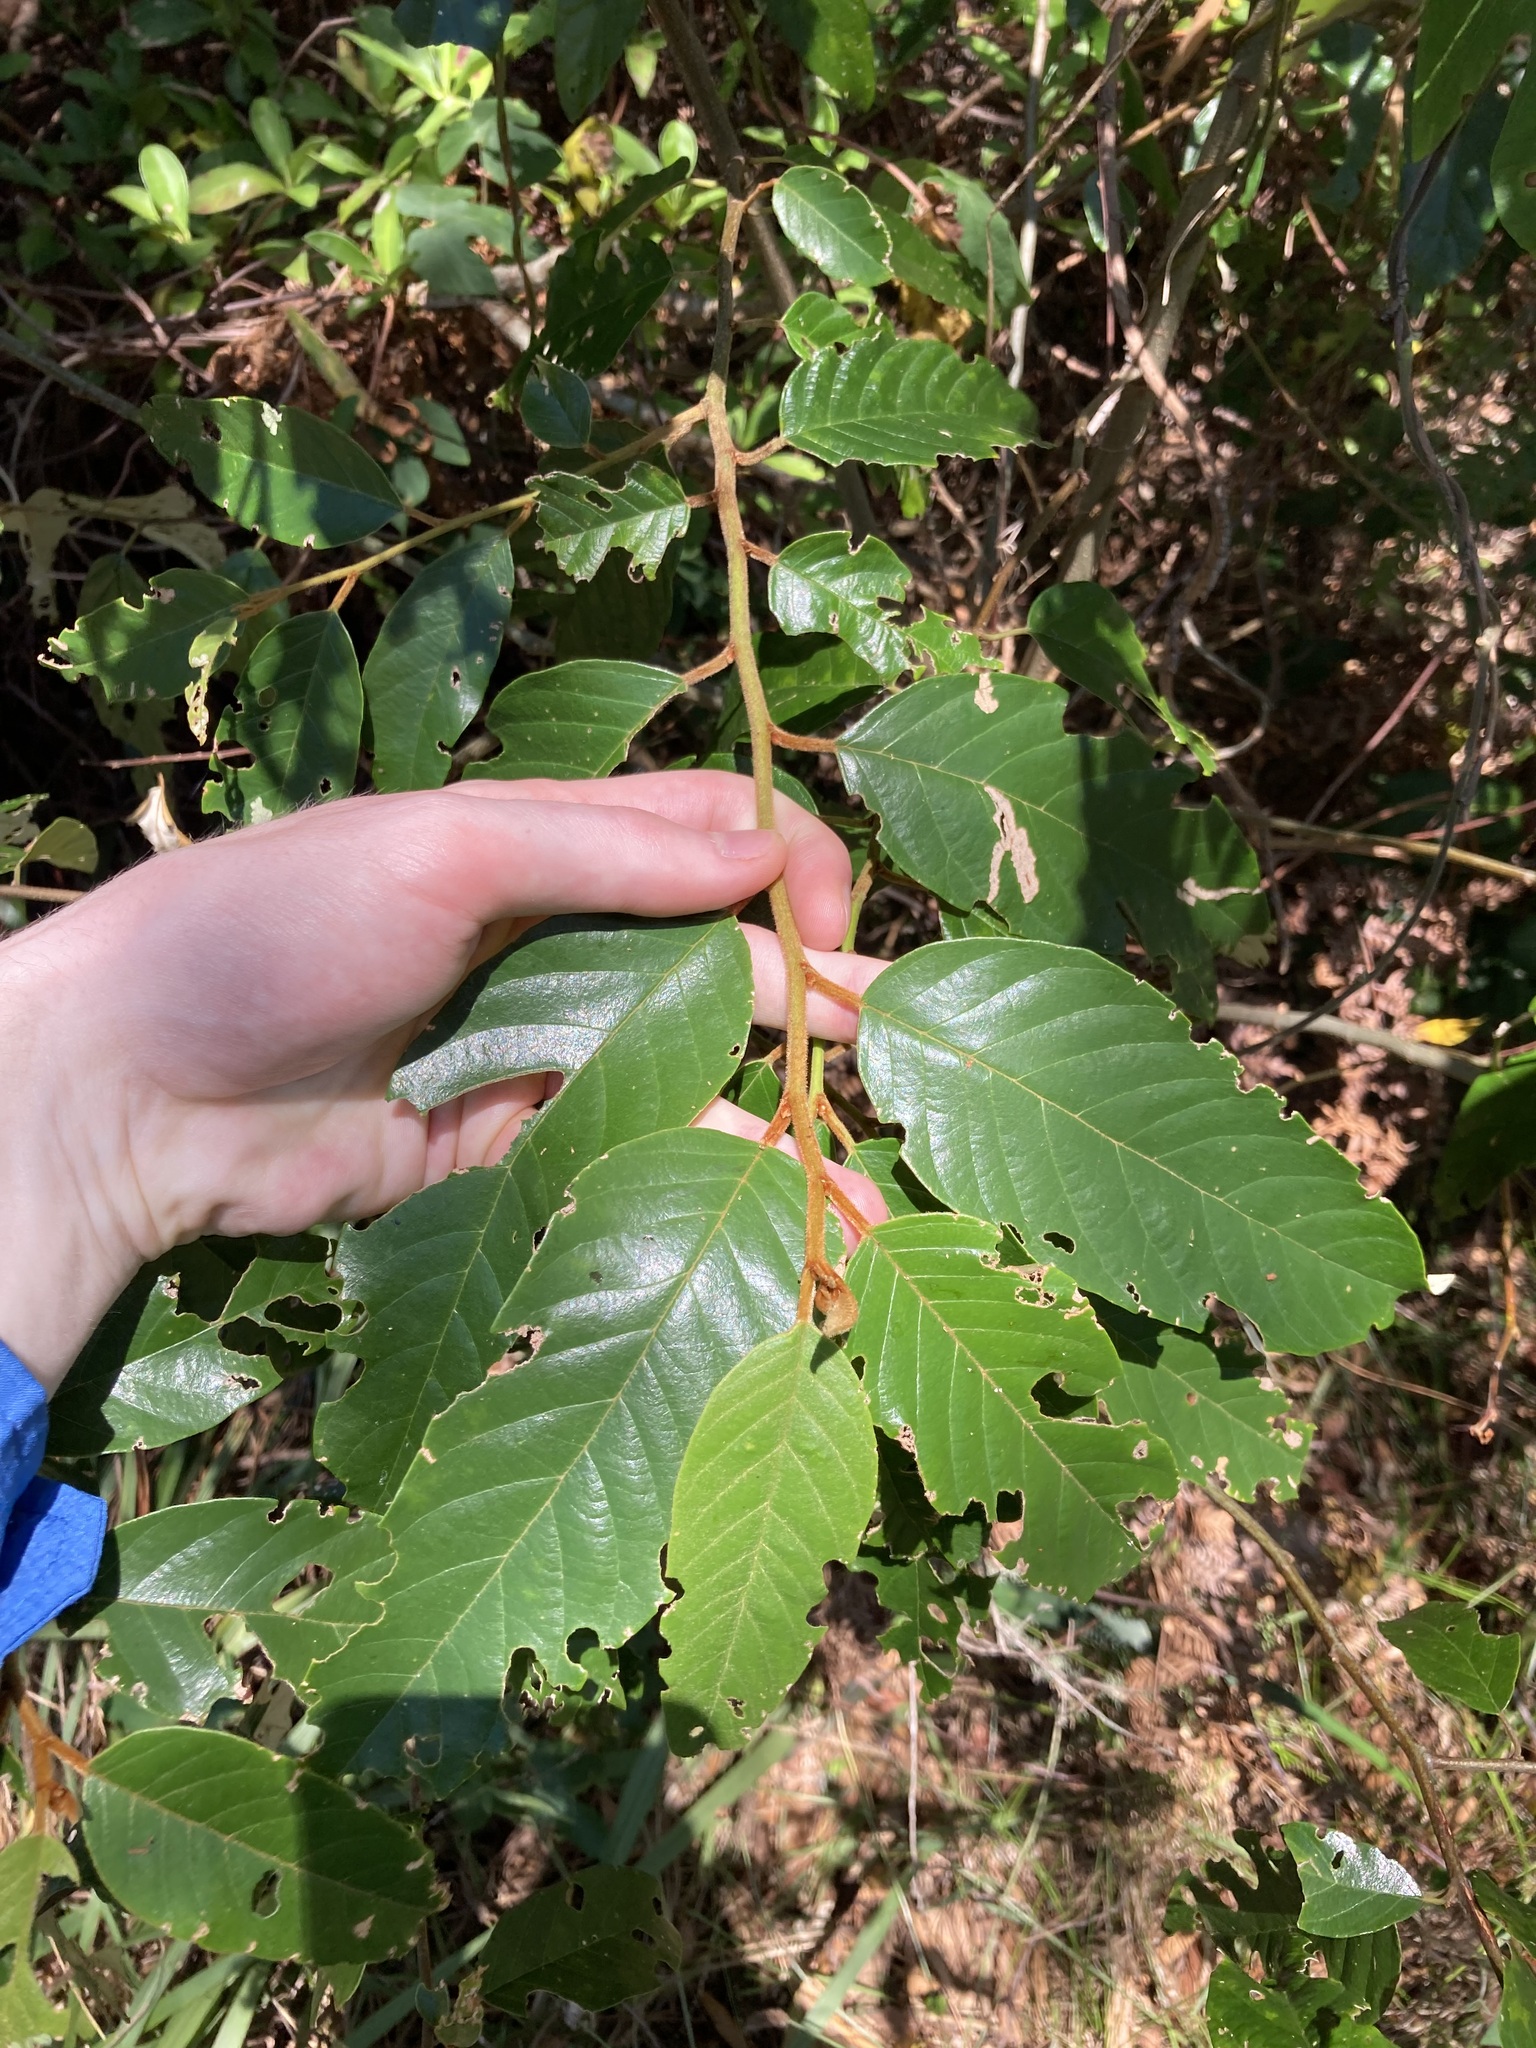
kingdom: Plantae
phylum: Tracheophyta
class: Magnoliopsida
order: Rosales
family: Rhamnaceae
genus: Alphitonia
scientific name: Alphitonia excelsa
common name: Red ash
